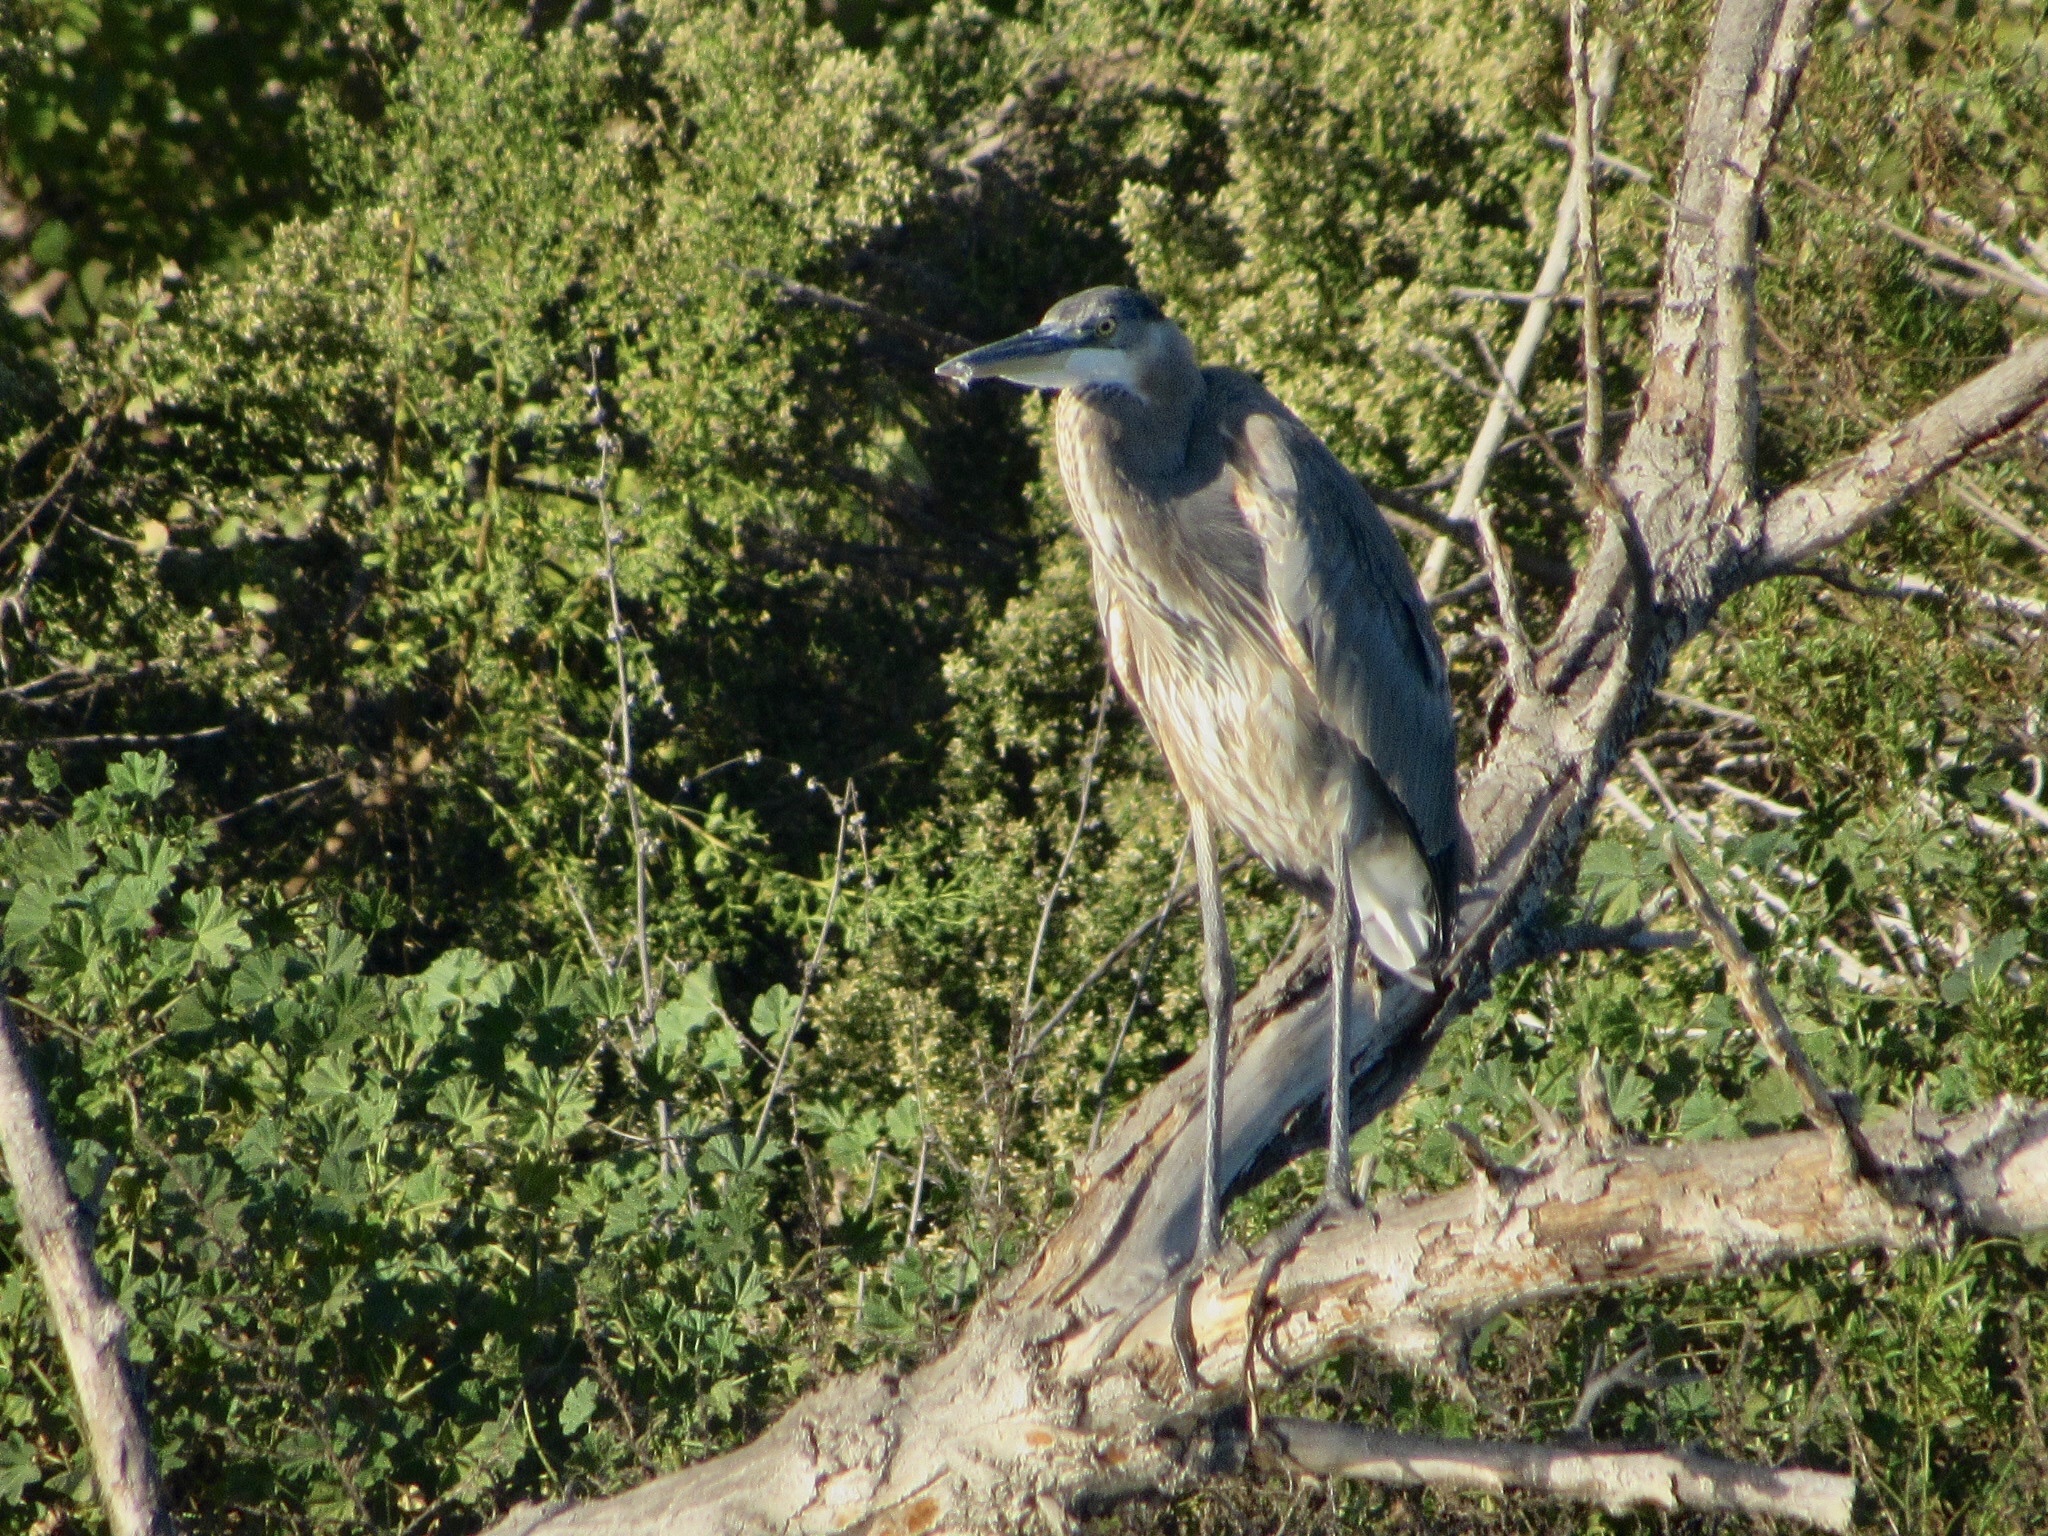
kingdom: Animalia
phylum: Chordata
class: Aves
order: Pelecaniformes
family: Ardeidae
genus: Ardea
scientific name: Ardea herodias
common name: Great blue heron
